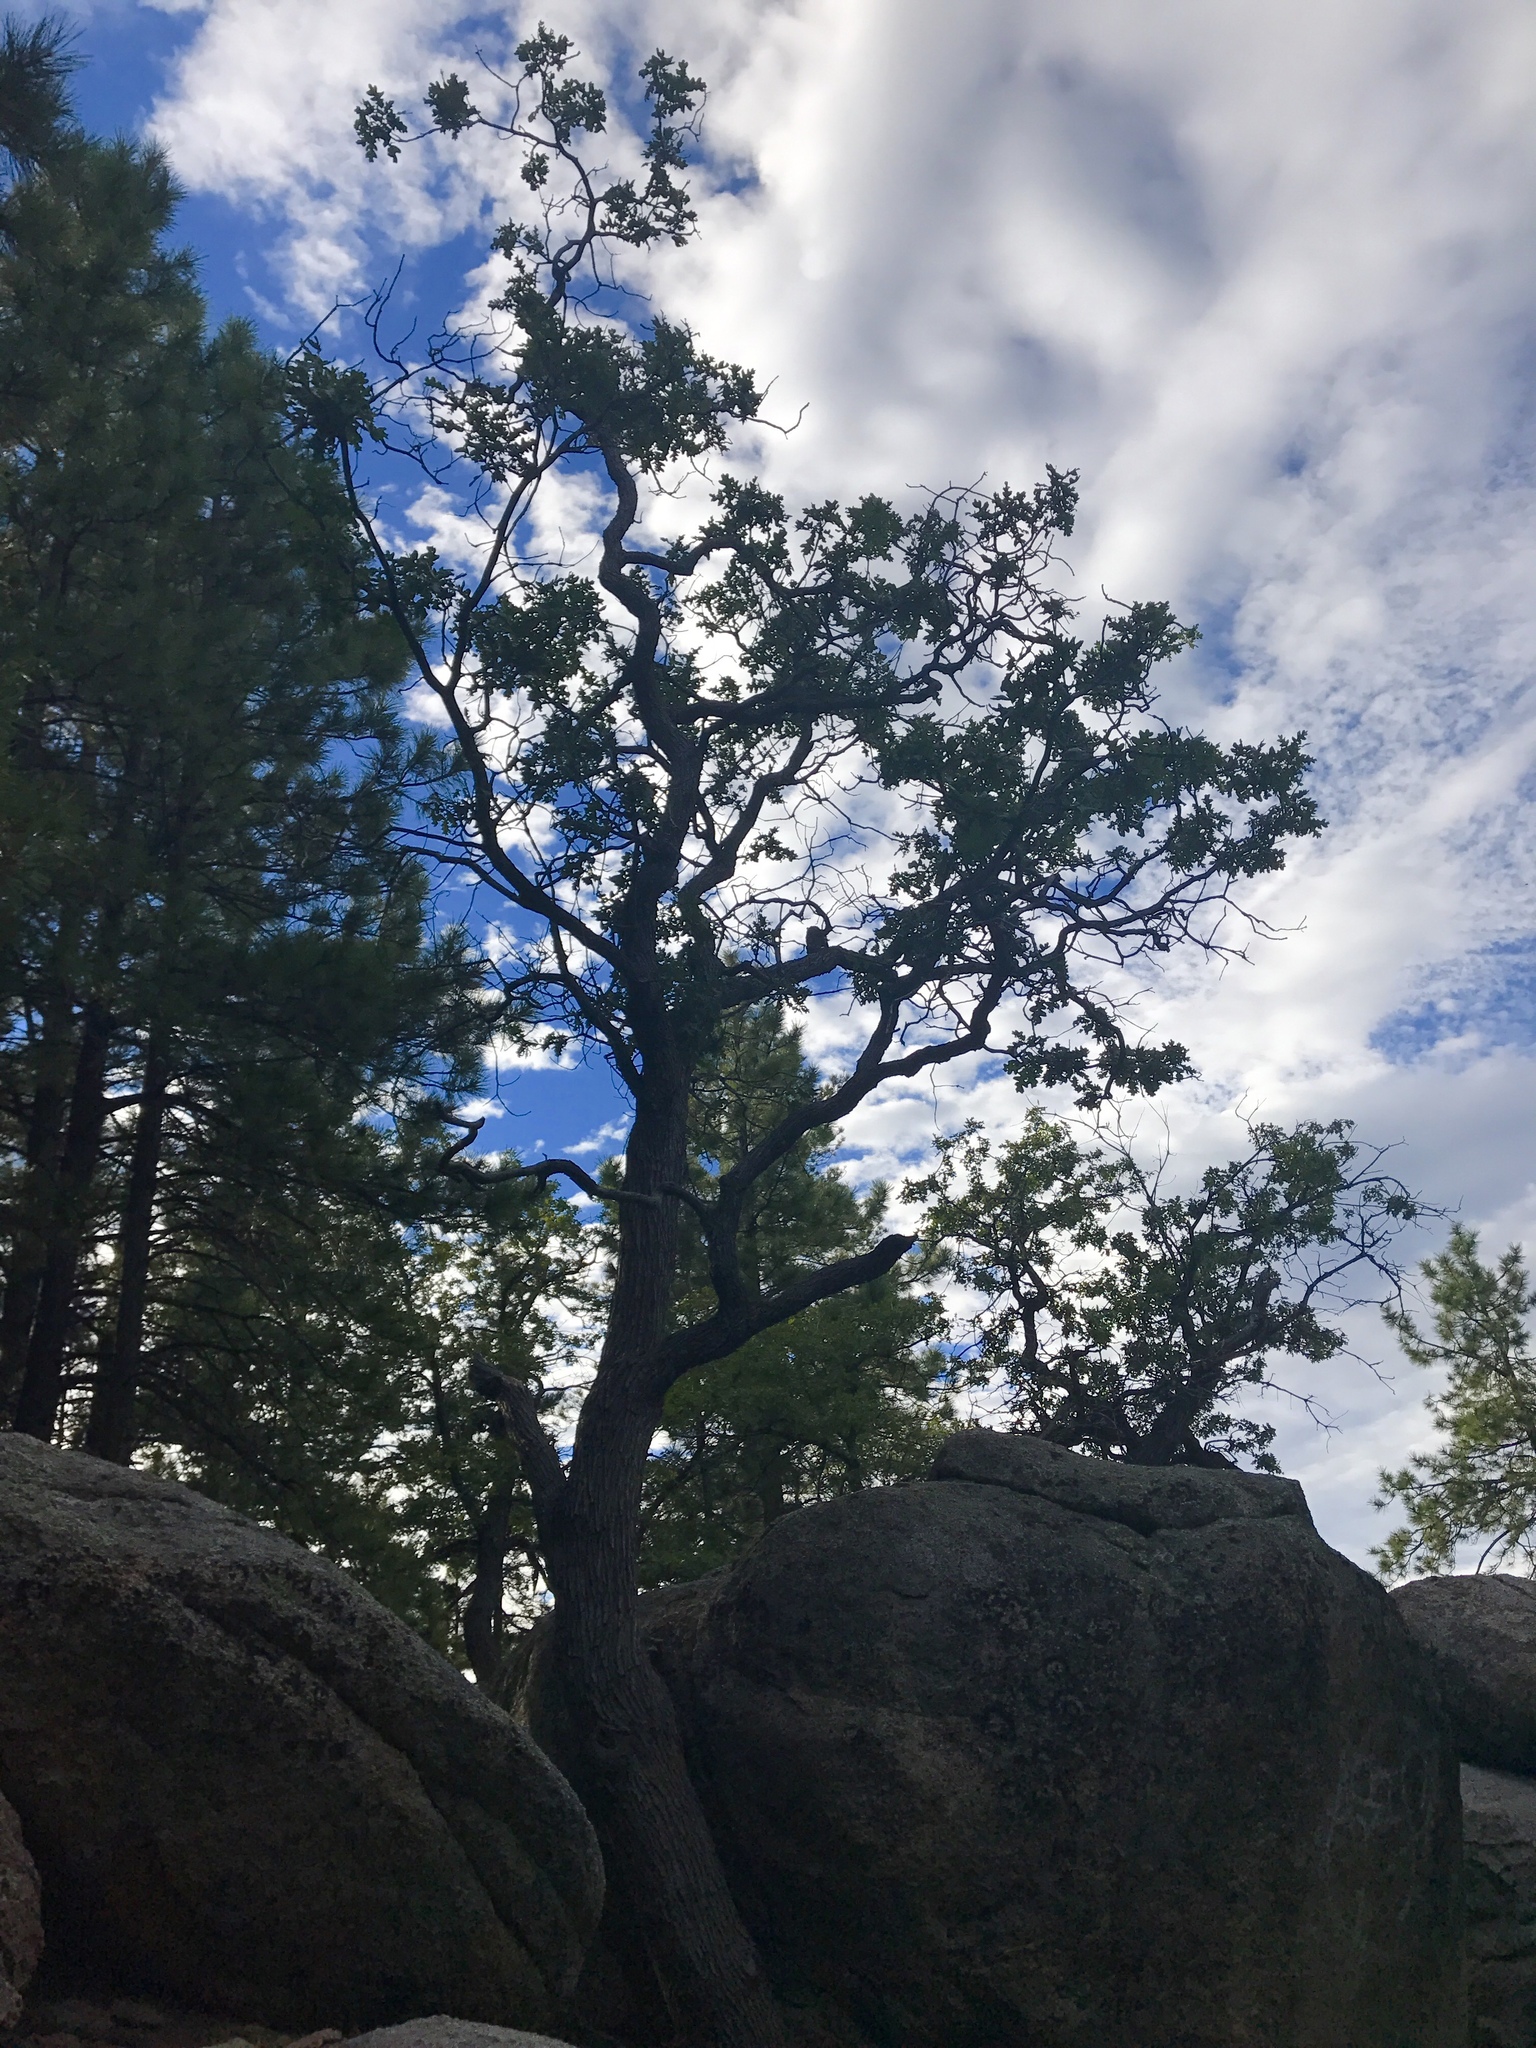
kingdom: Plantae
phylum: Tracheophyta
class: Magnoliopsida
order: Fagales
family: Fagaceae
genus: Quercus
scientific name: Quercus gambelii
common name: Gambel oak
